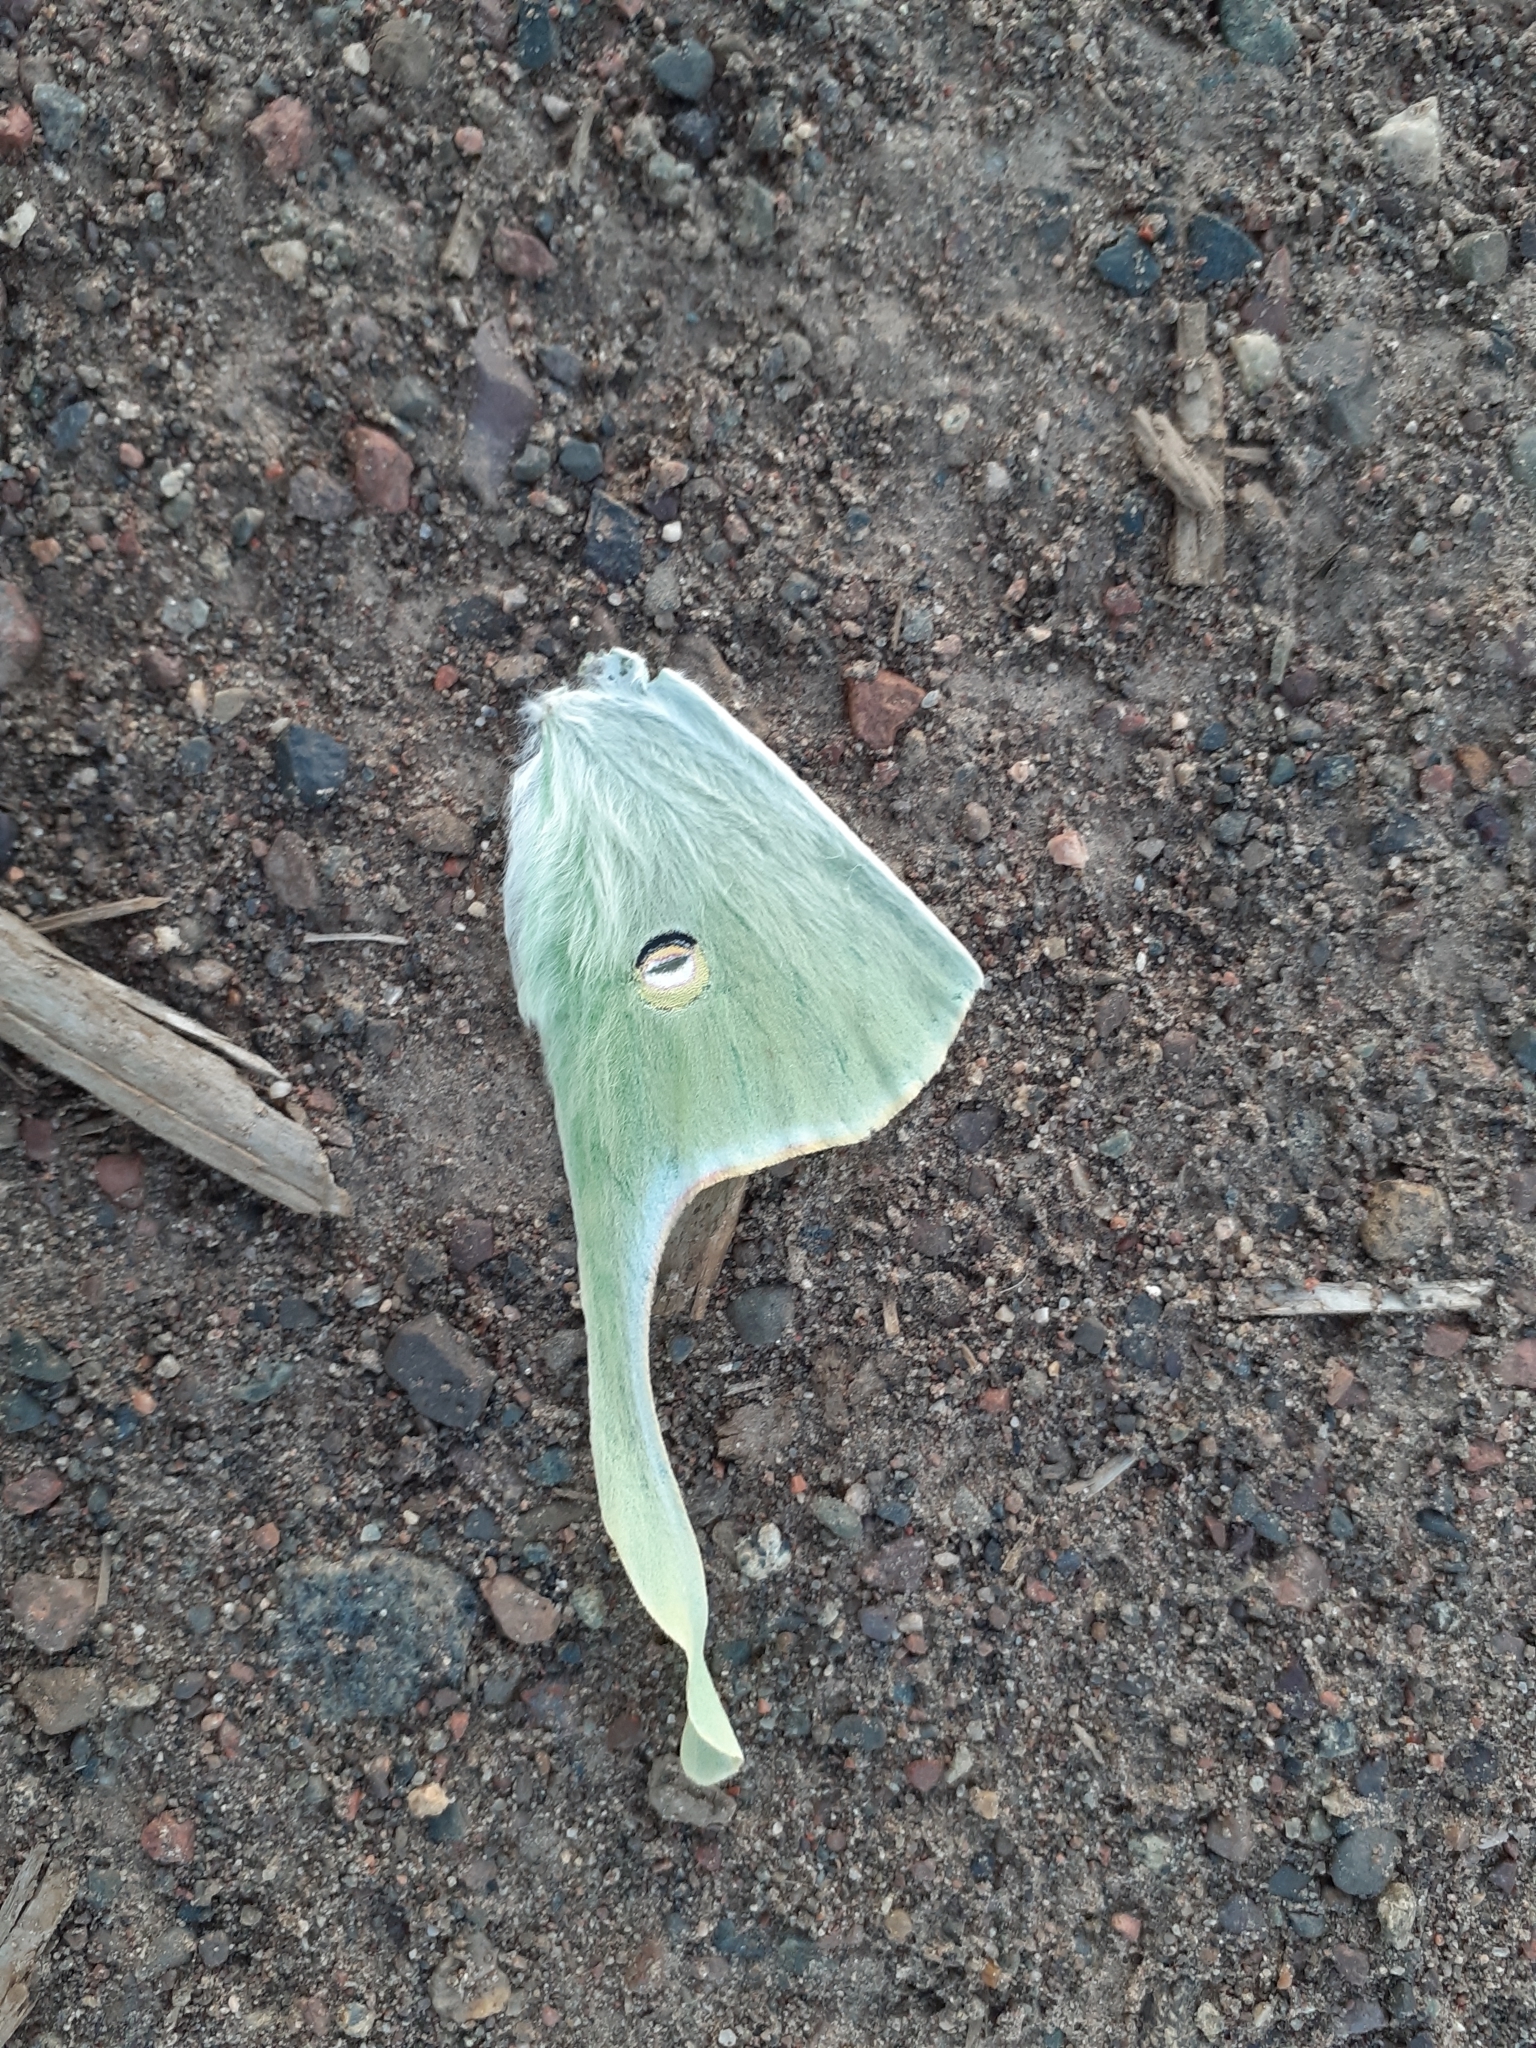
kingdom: Animalia
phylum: Arthropoda
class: Insecta
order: Lepidoptera
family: Saturniidae
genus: Actias
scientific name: Actias luna
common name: Luna moth
